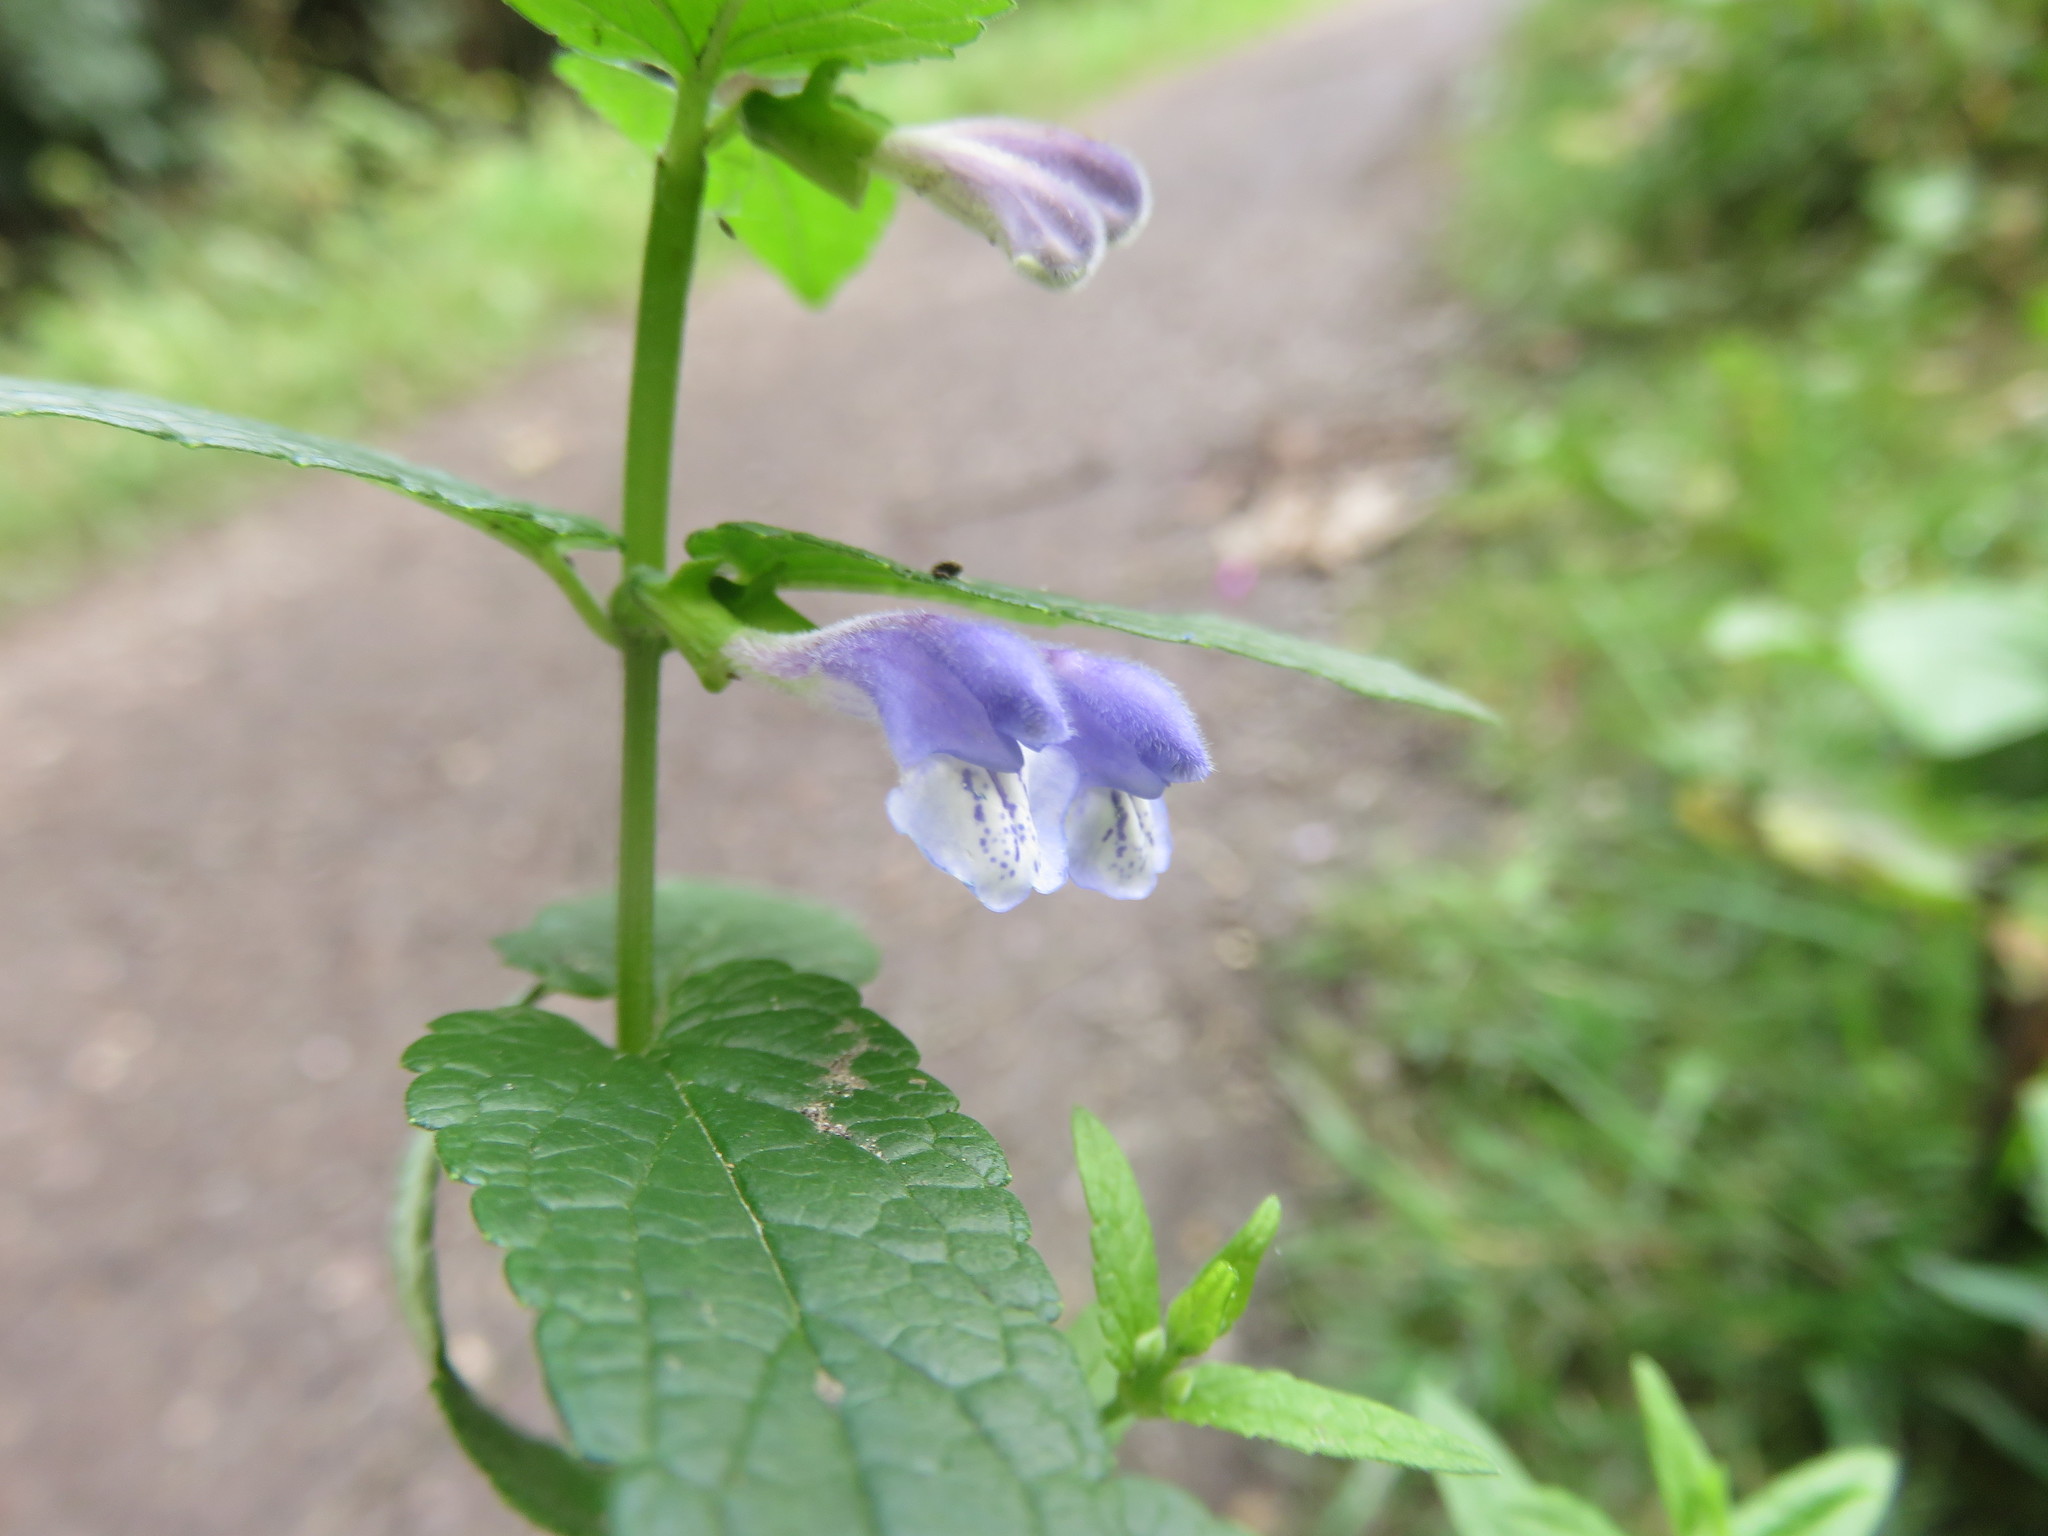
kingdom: Plantae
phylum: Tracheophyta
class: Magnoliopsida
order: Lamiales
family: Lamiaceae
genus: Scutellaria
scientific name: Scutellaria galericulata
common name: Skullcap
